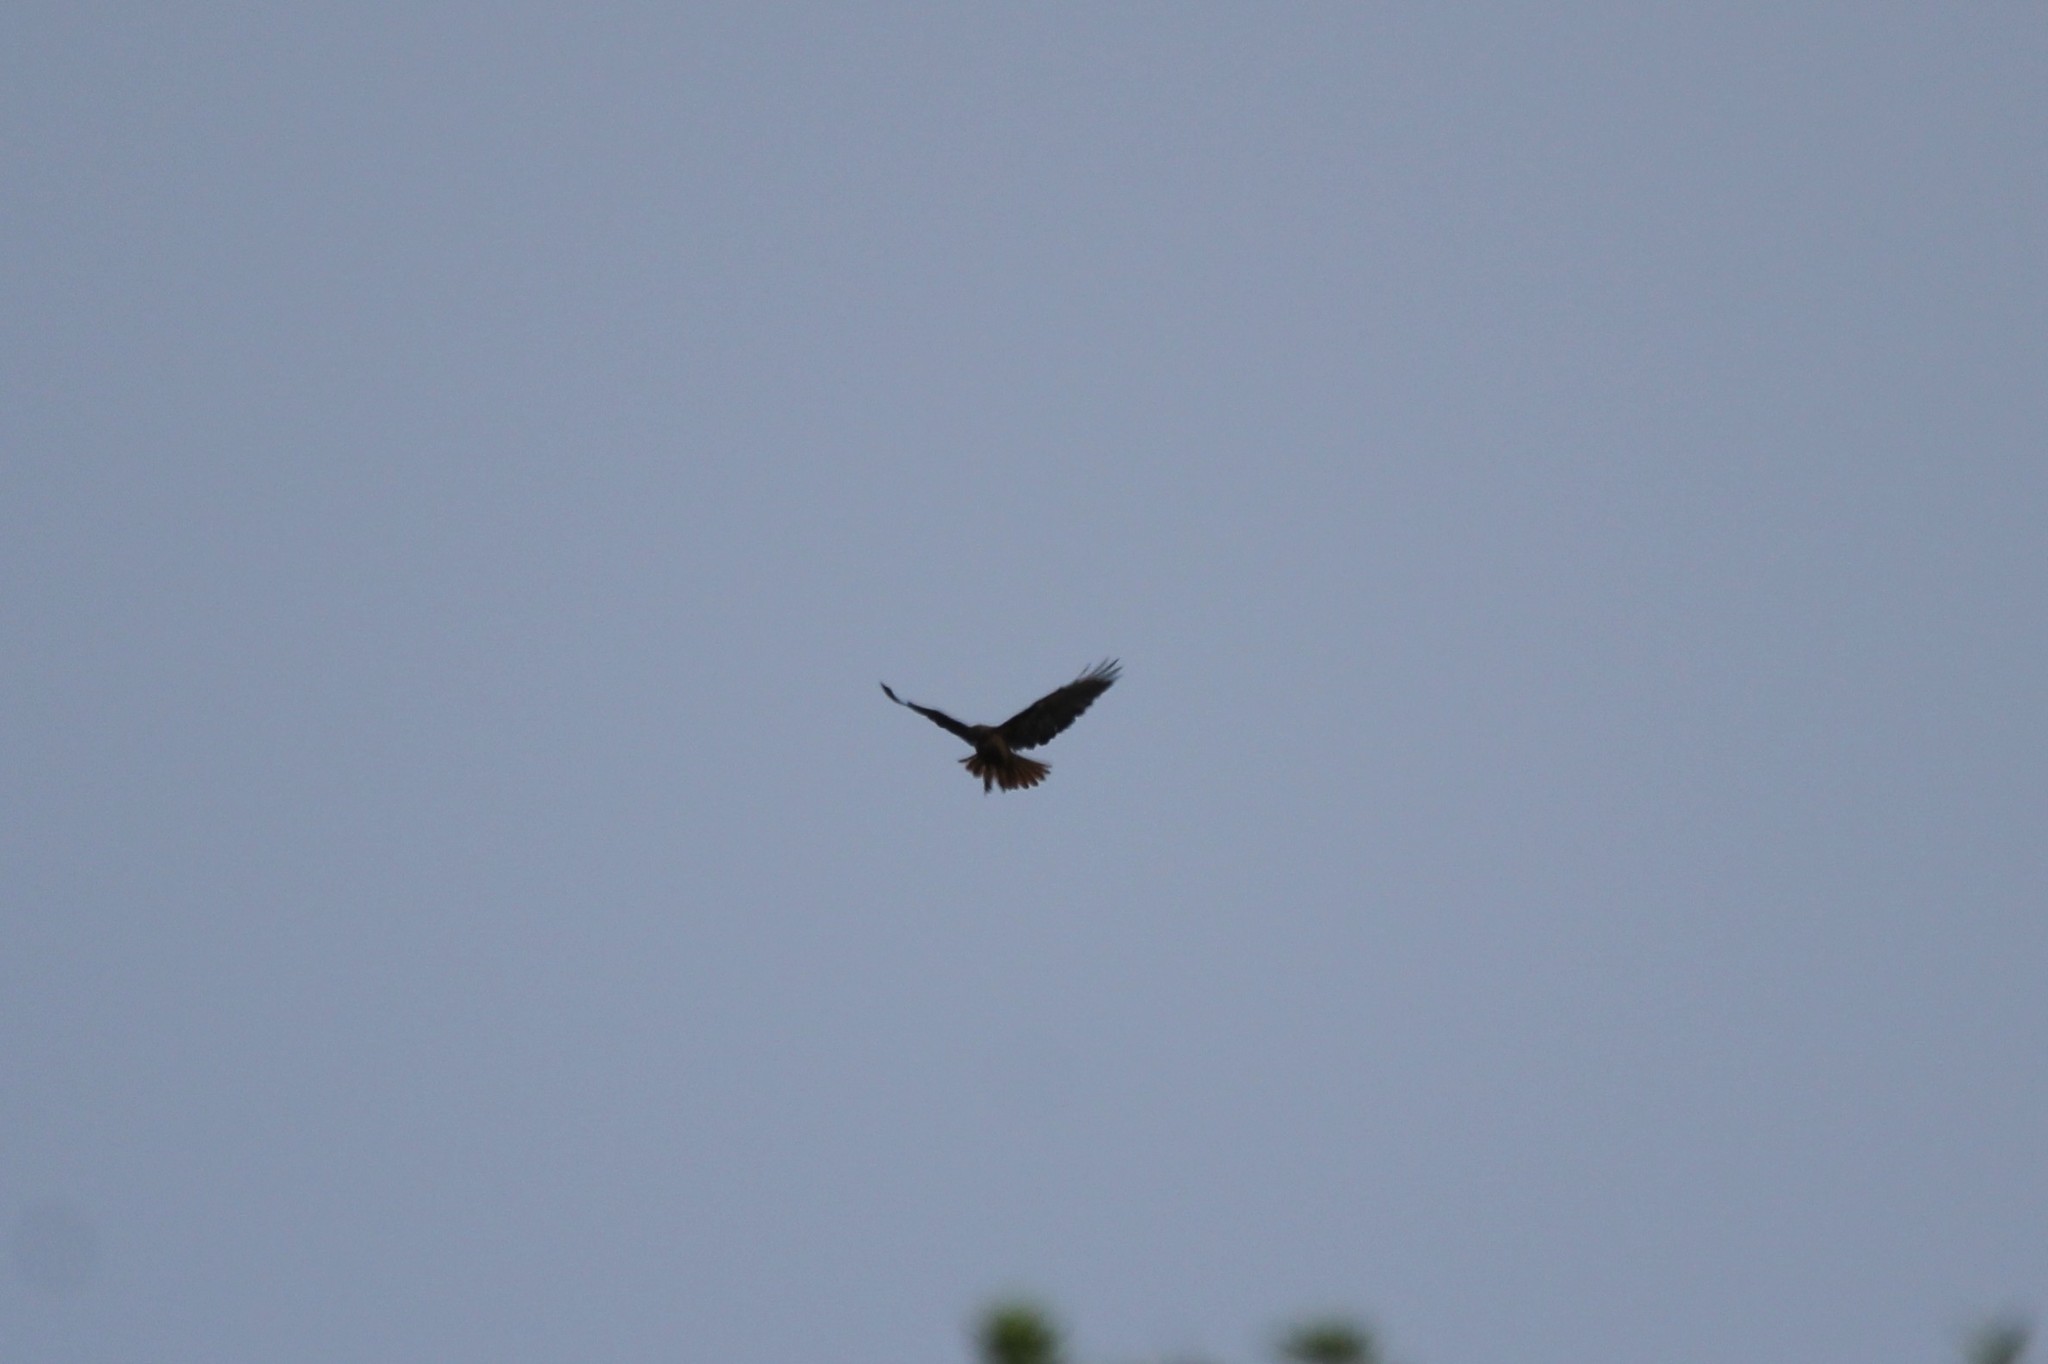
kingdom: Animalia
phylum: Chordata
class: Aves
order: Accipitriformes
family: Accipitridae
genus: Buteo
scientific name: Buteo jamaicensis
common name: Red-tailed hawk
